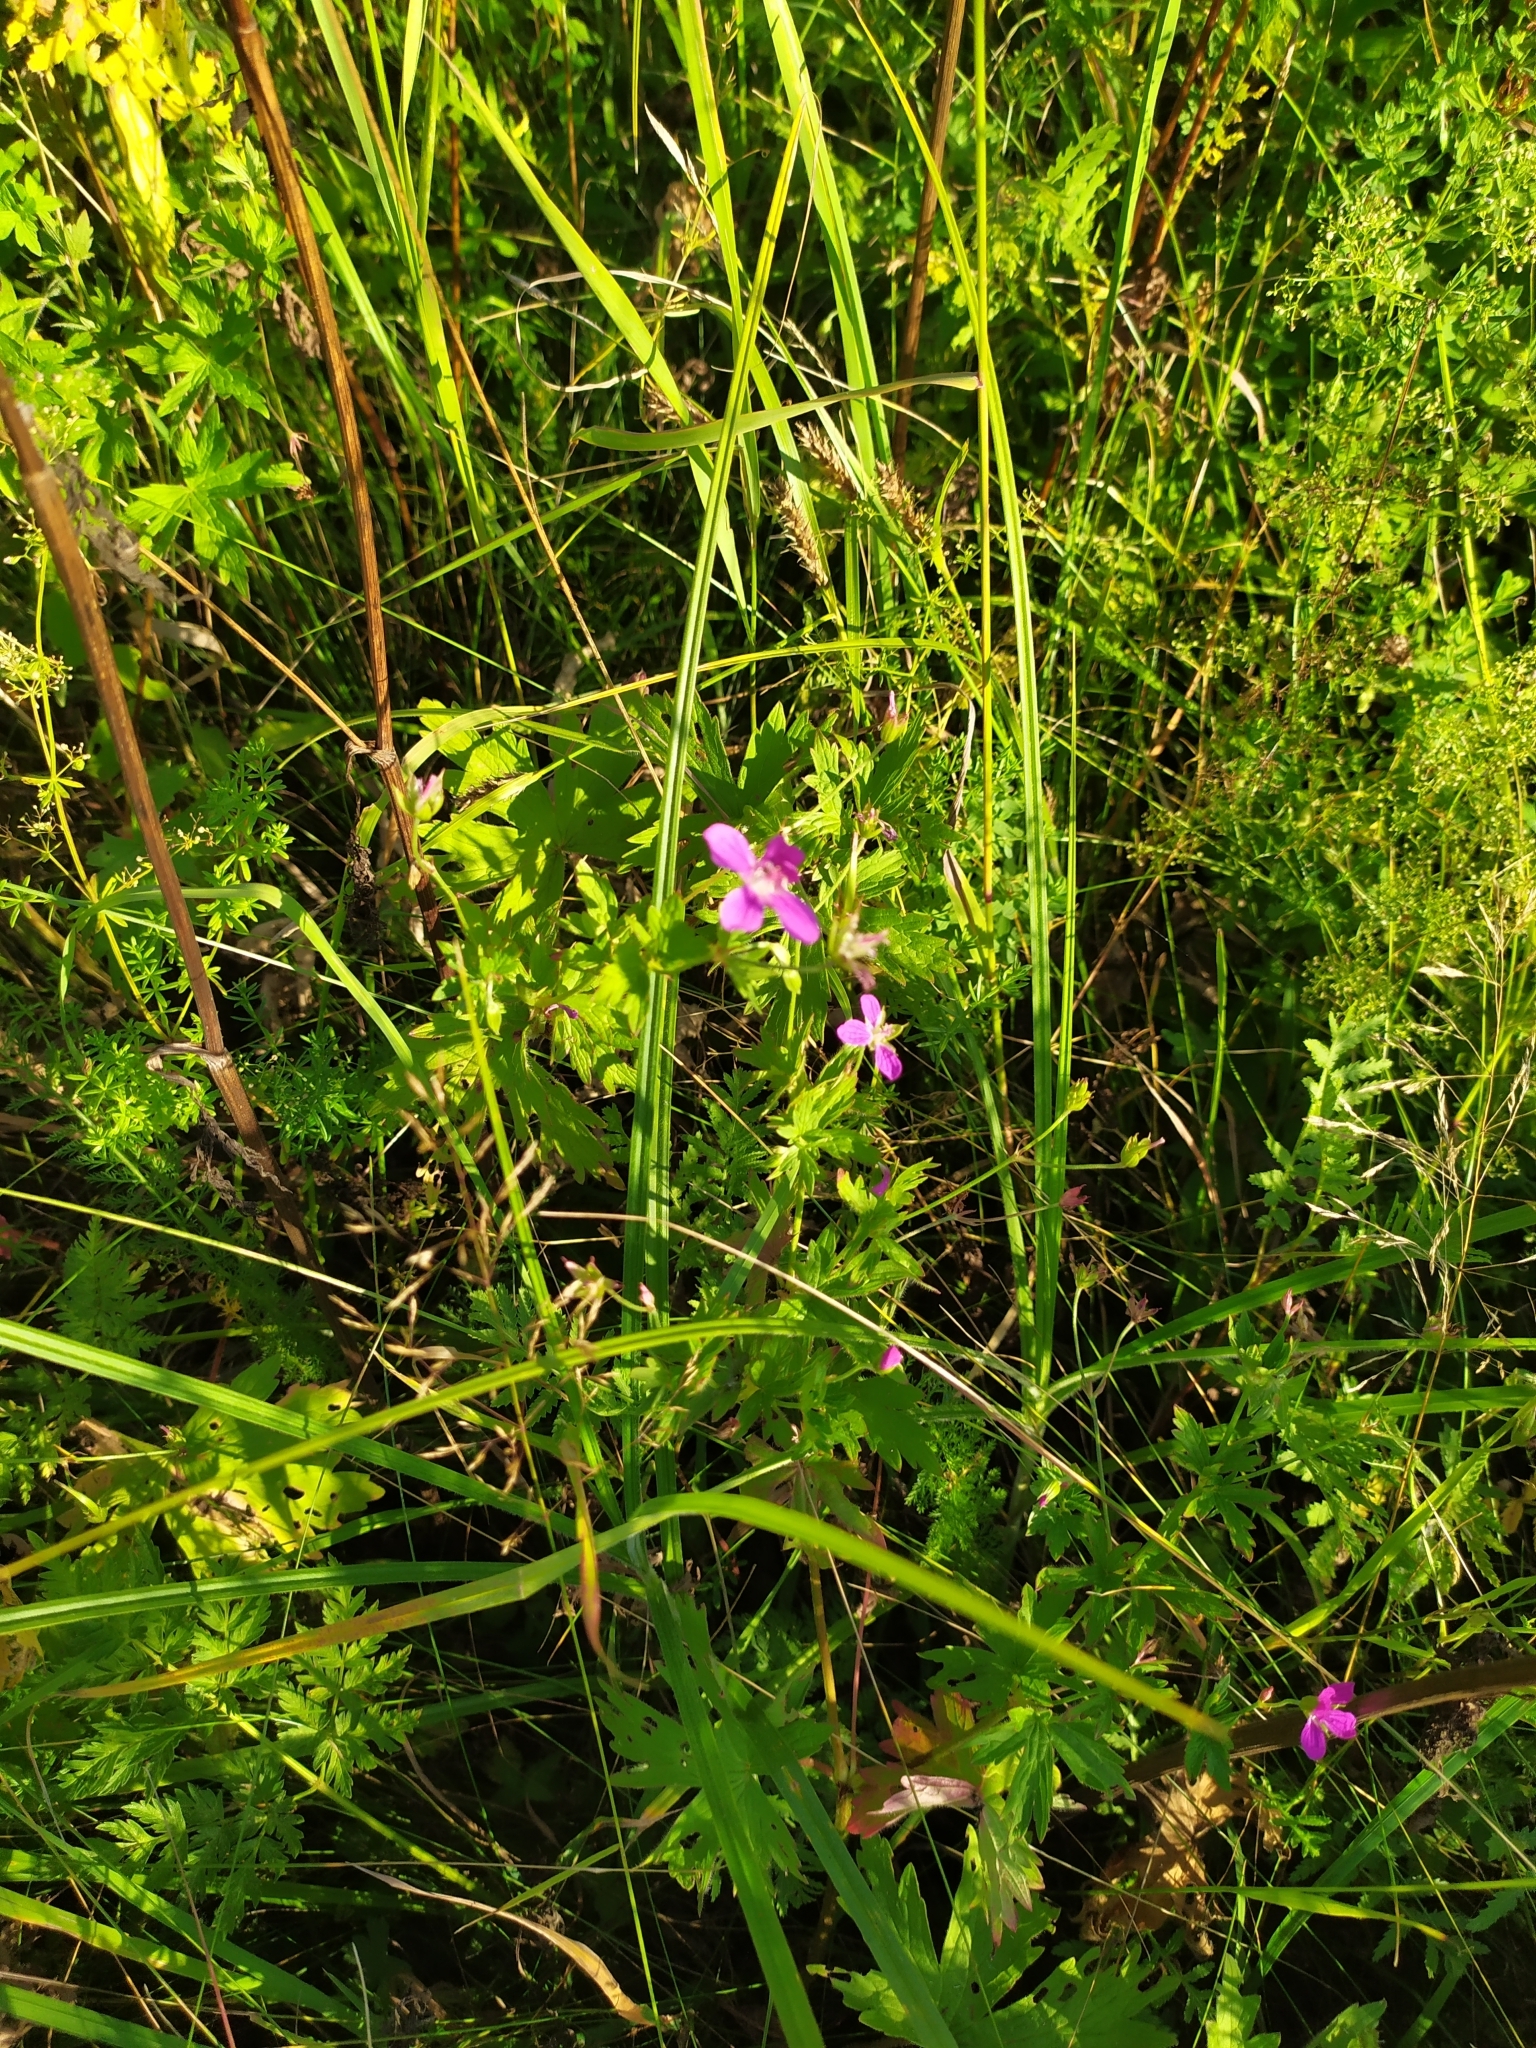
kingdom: Plantae
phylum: Tracheophyta
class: Magnoliopsida
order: Geraniales
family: Geraniaceae
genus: Geranium
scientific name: Geranium palustre
